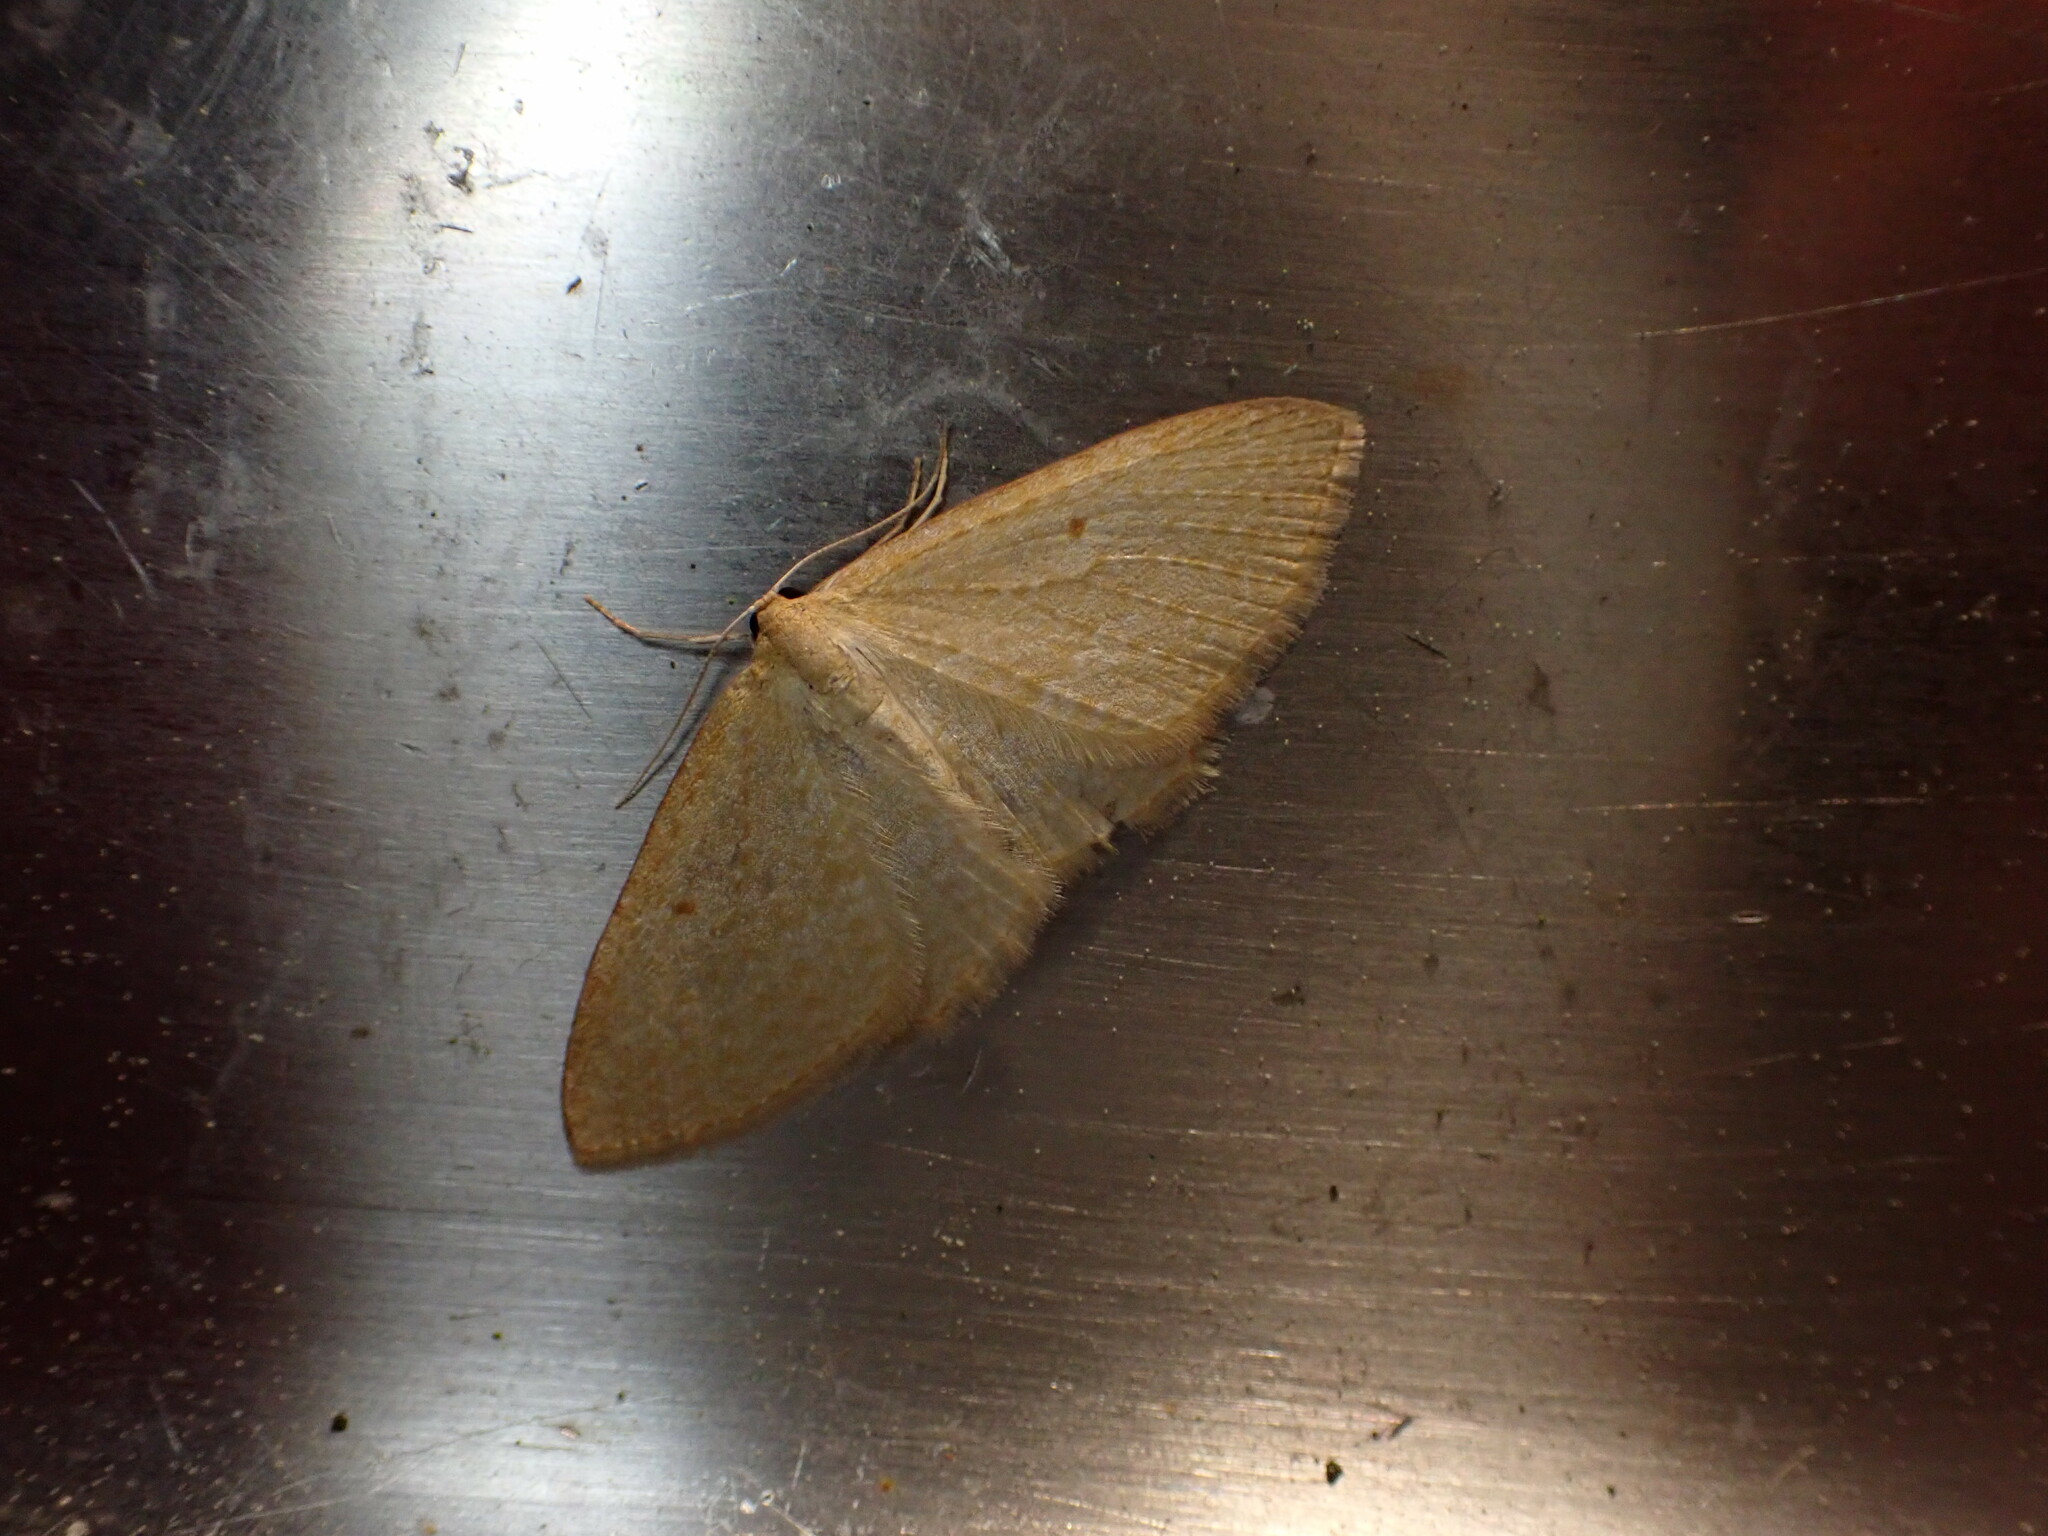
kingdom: Animalia
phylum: Arthropoda
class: Insecta
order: Lepidoptera
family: Geometridae
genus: Poecilasthena
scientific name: Poecilasthena pulchraria
